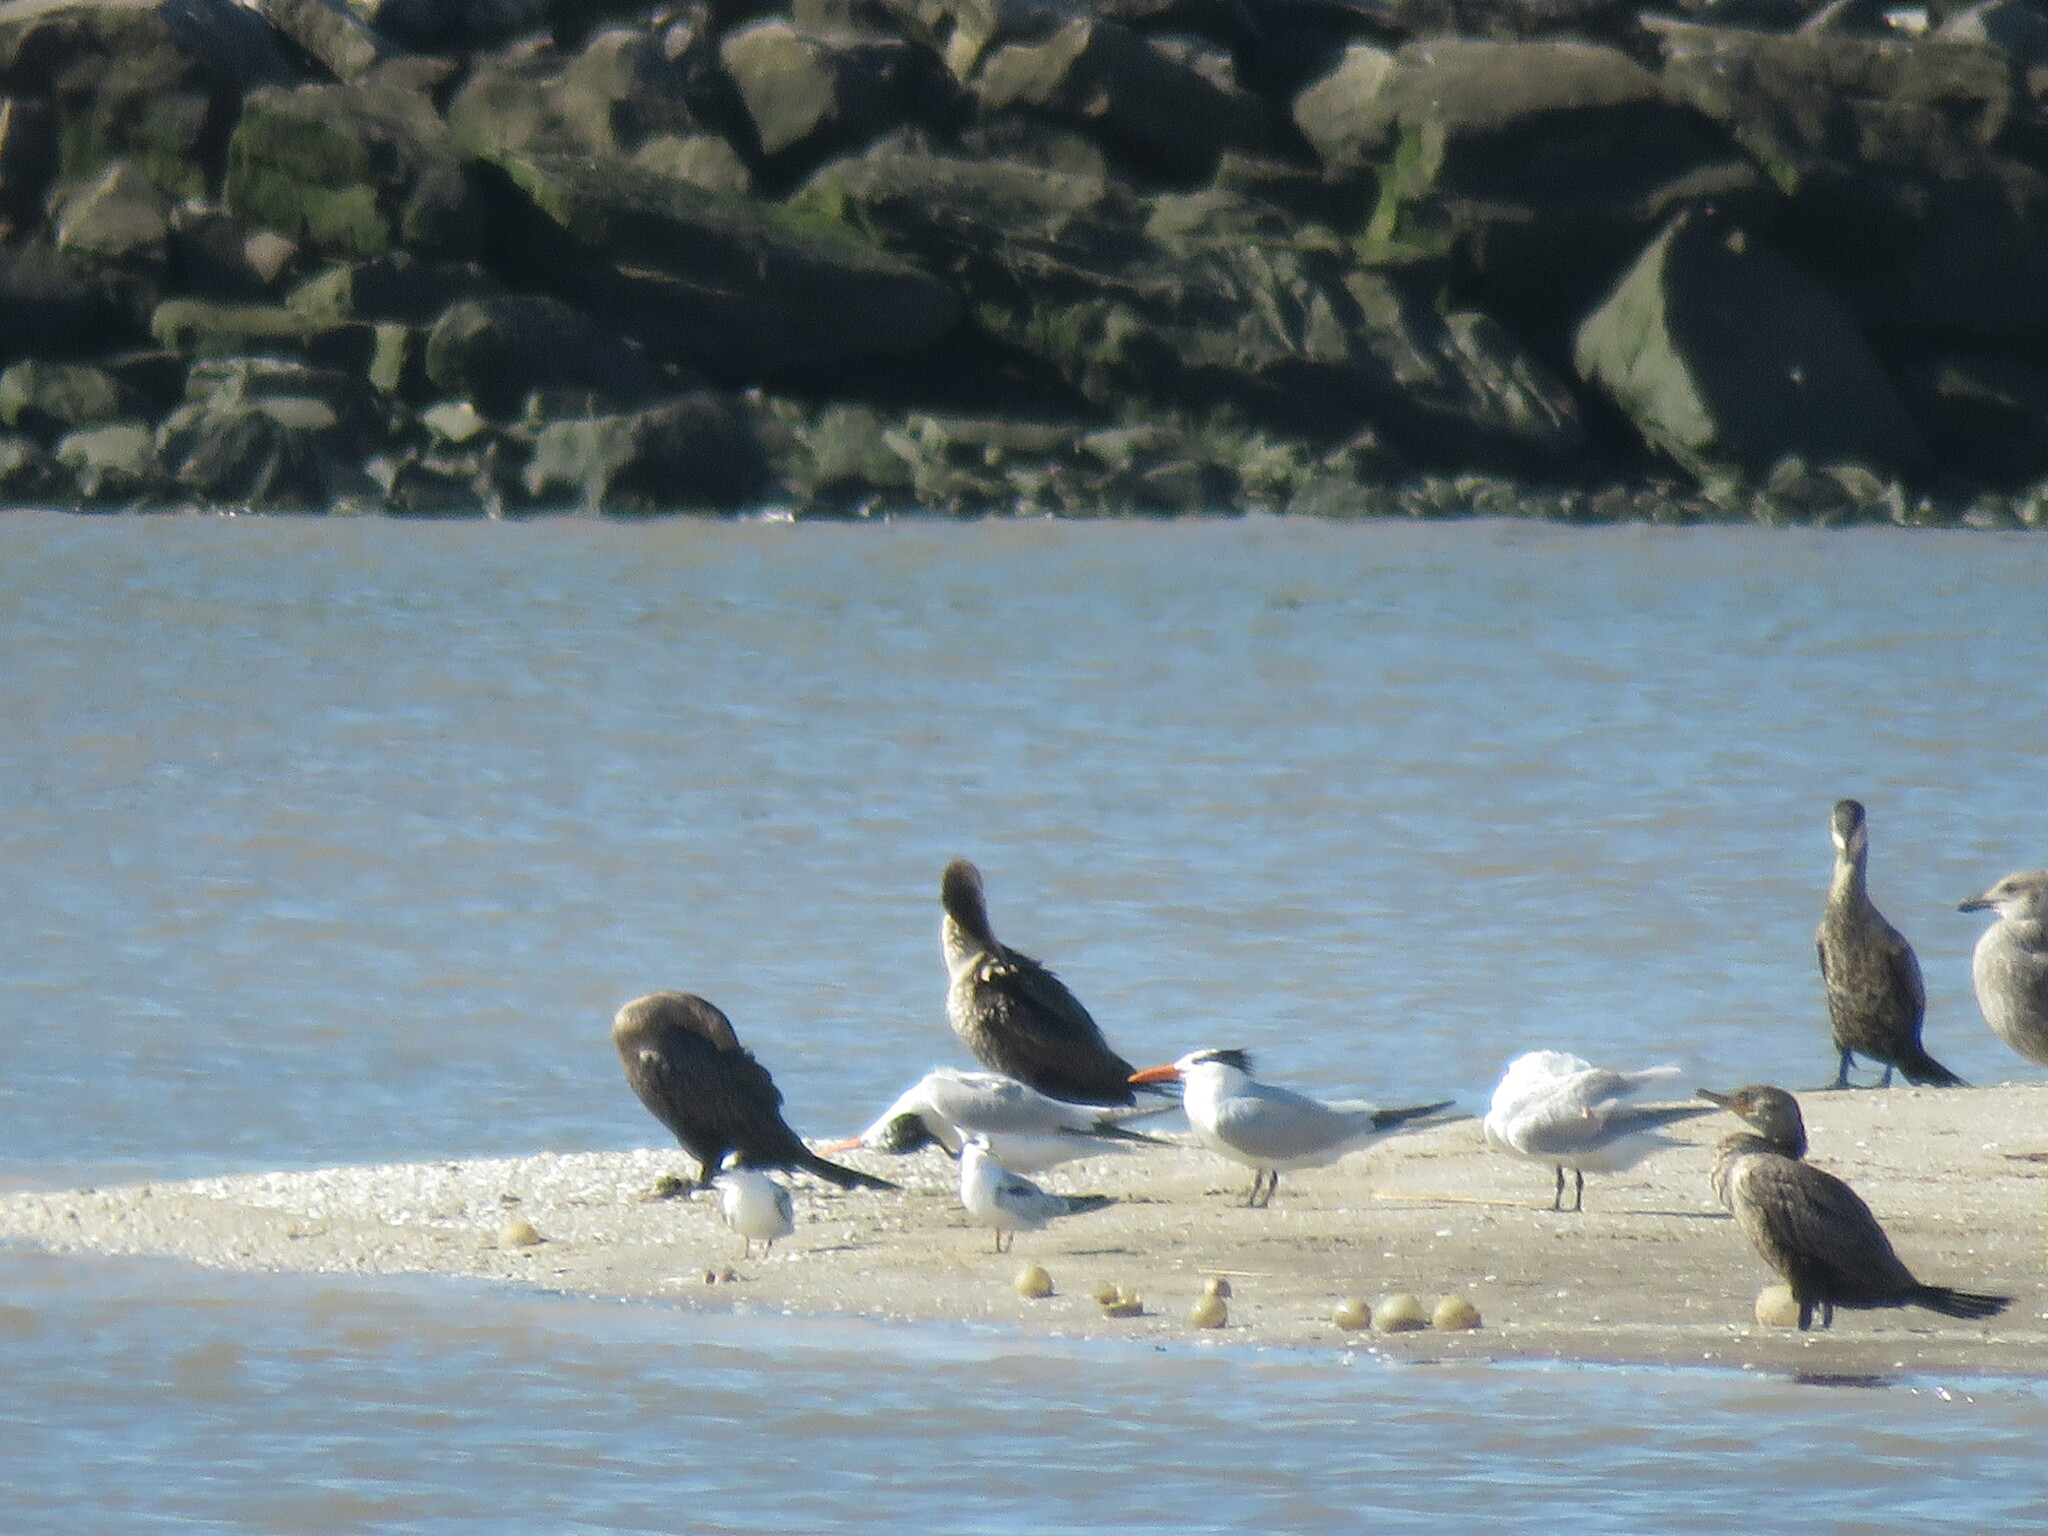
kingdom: Animalia
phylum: Chordata
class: Aves
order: Charadriiformes
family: Laridae
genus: Thalasseus
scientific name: Thalasseus maximus
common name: Royal tern
